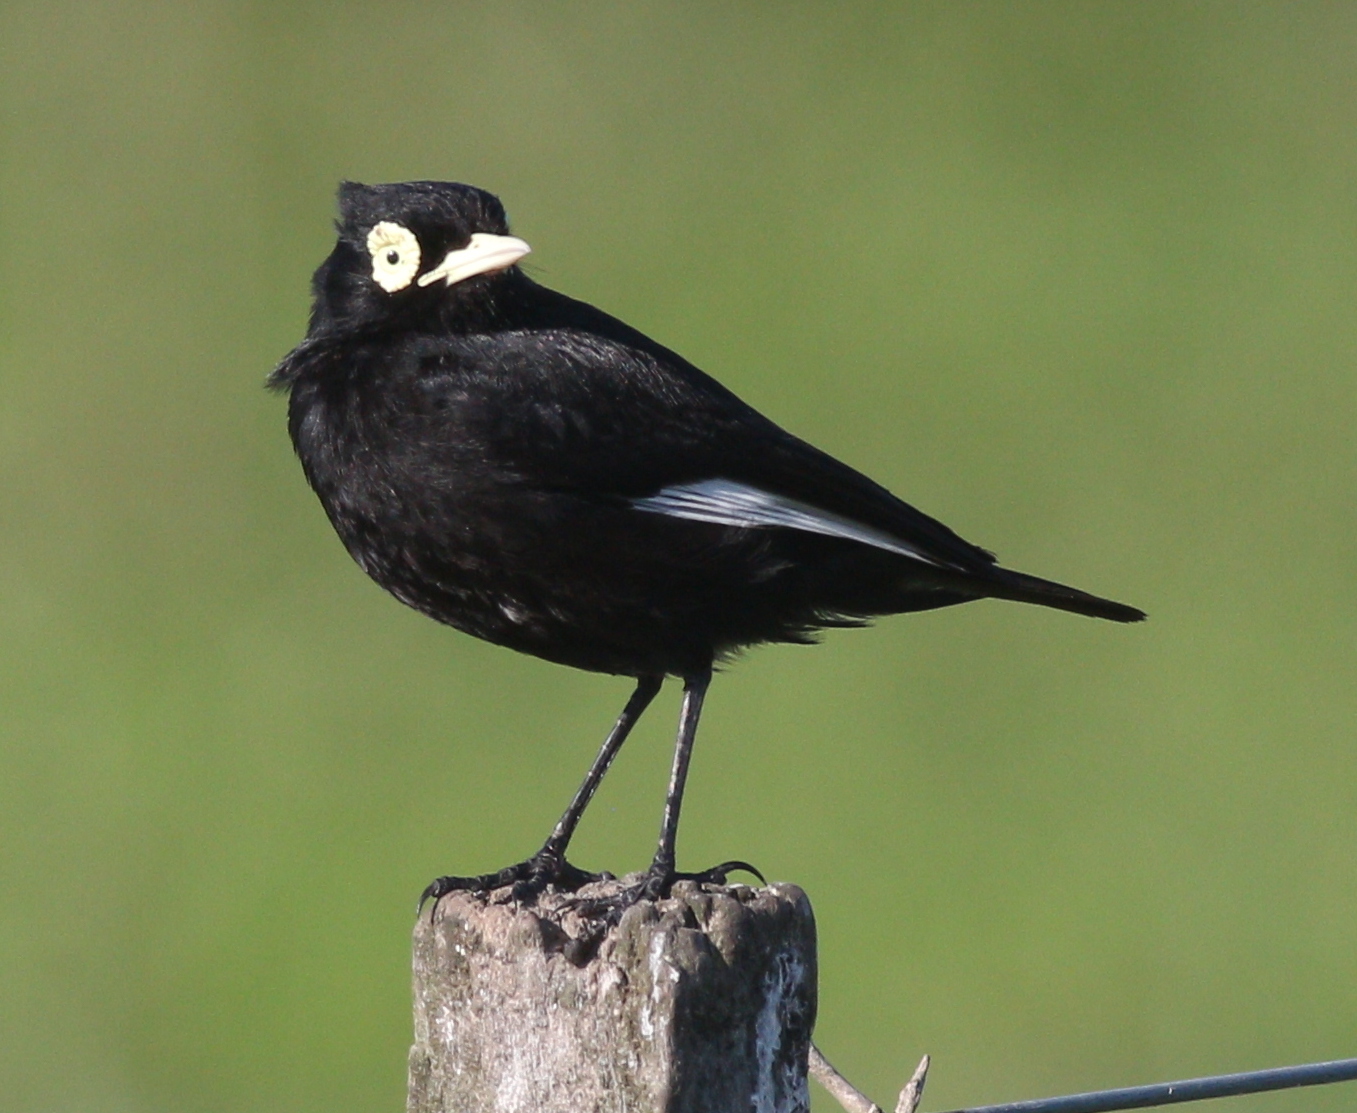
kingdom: Animalia
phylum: Chordata
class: Aves
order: Passeriformes
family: Tyrannidae
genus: Hymenops
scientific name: Hymenops perspicillatus
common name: Spectacled tyrant
